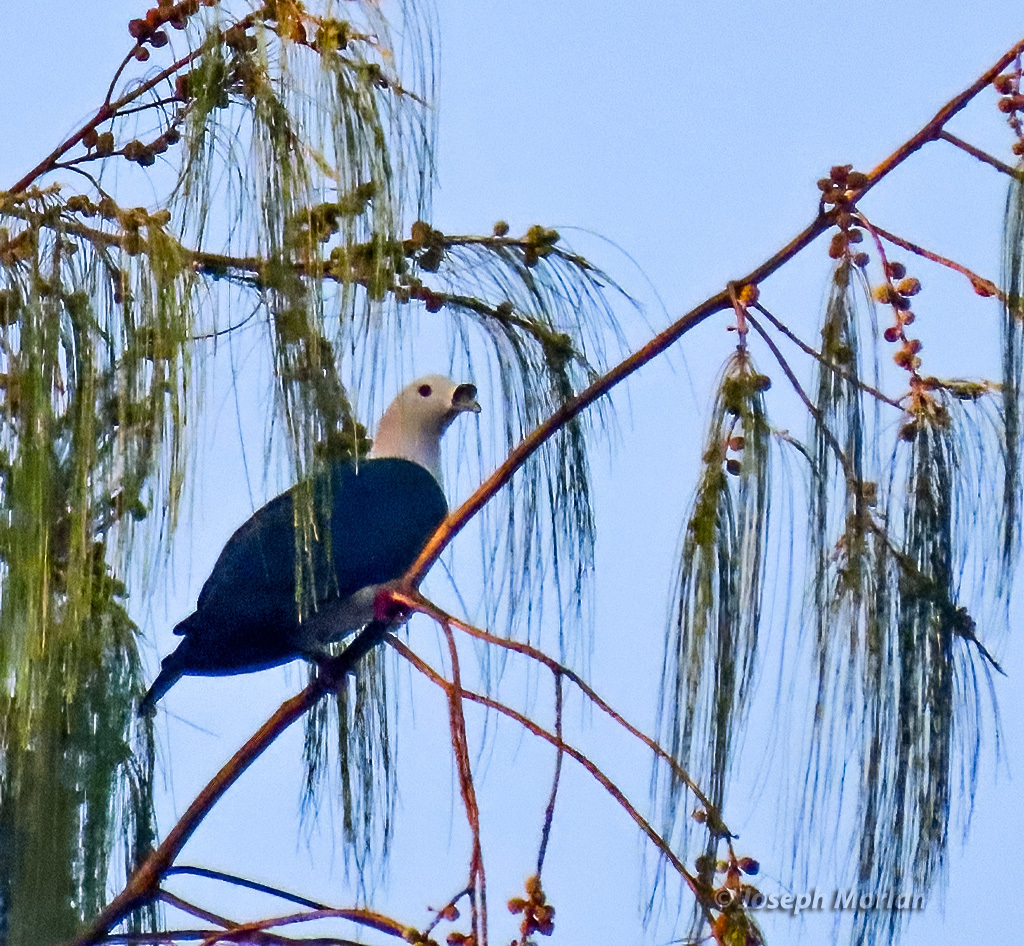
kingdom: Animalia
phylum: Chordata
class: Aves
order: Columbiformes
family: Columbidae
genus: Ducula
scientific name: Ducula myristicivora
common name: Spice imperial pigeon
